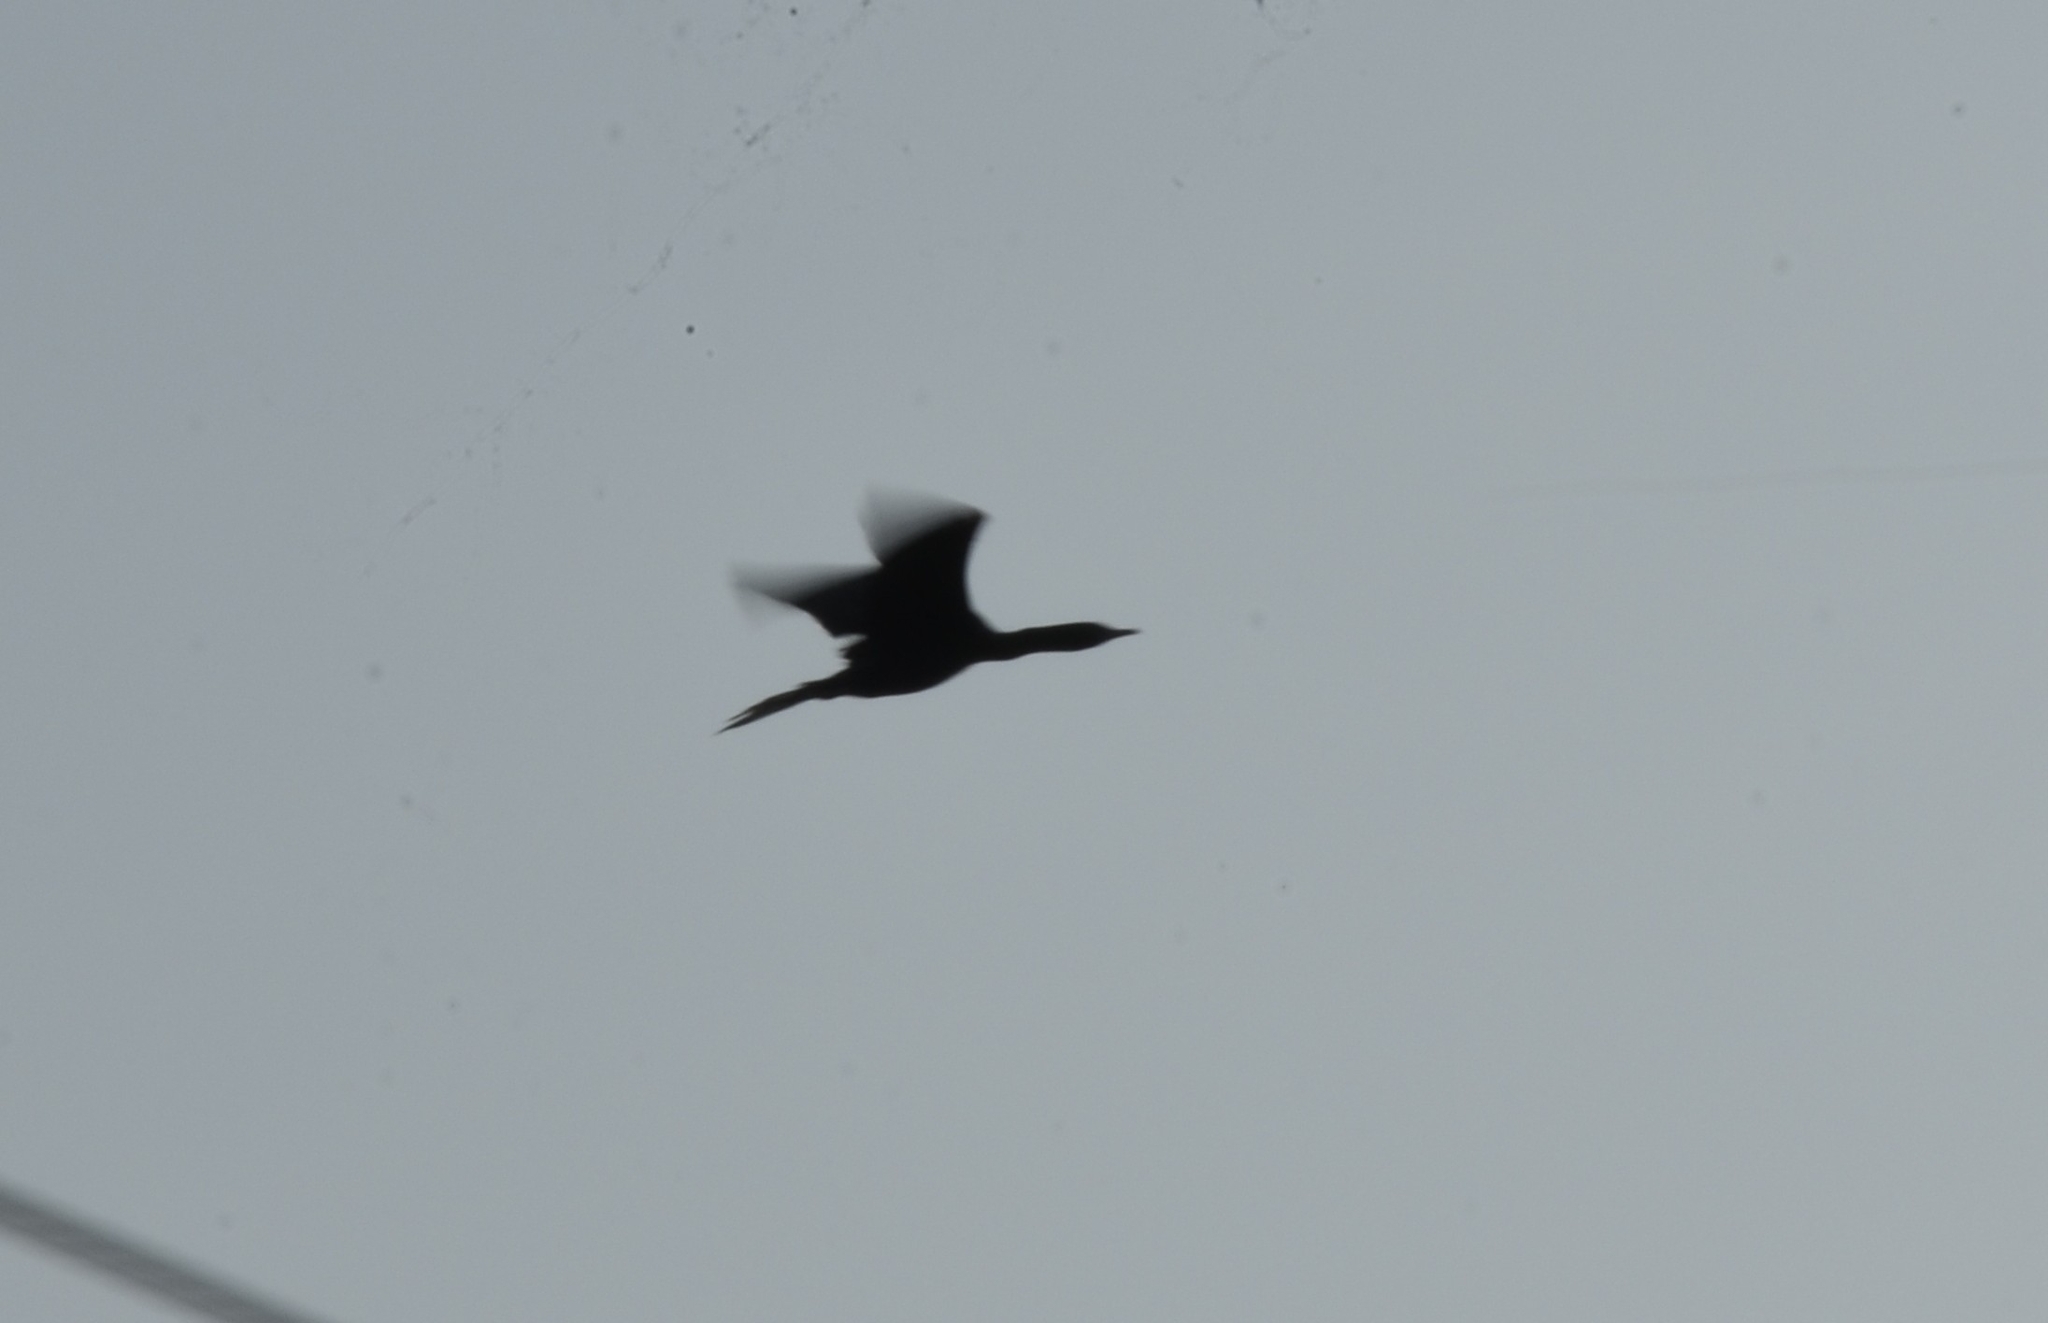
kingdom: Animalia
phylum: Chordata
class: Aves
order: Suliformes
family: Phalacrocoracidae
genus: Microcarbo
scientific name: Microcarbo niger
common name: Little cormorant
